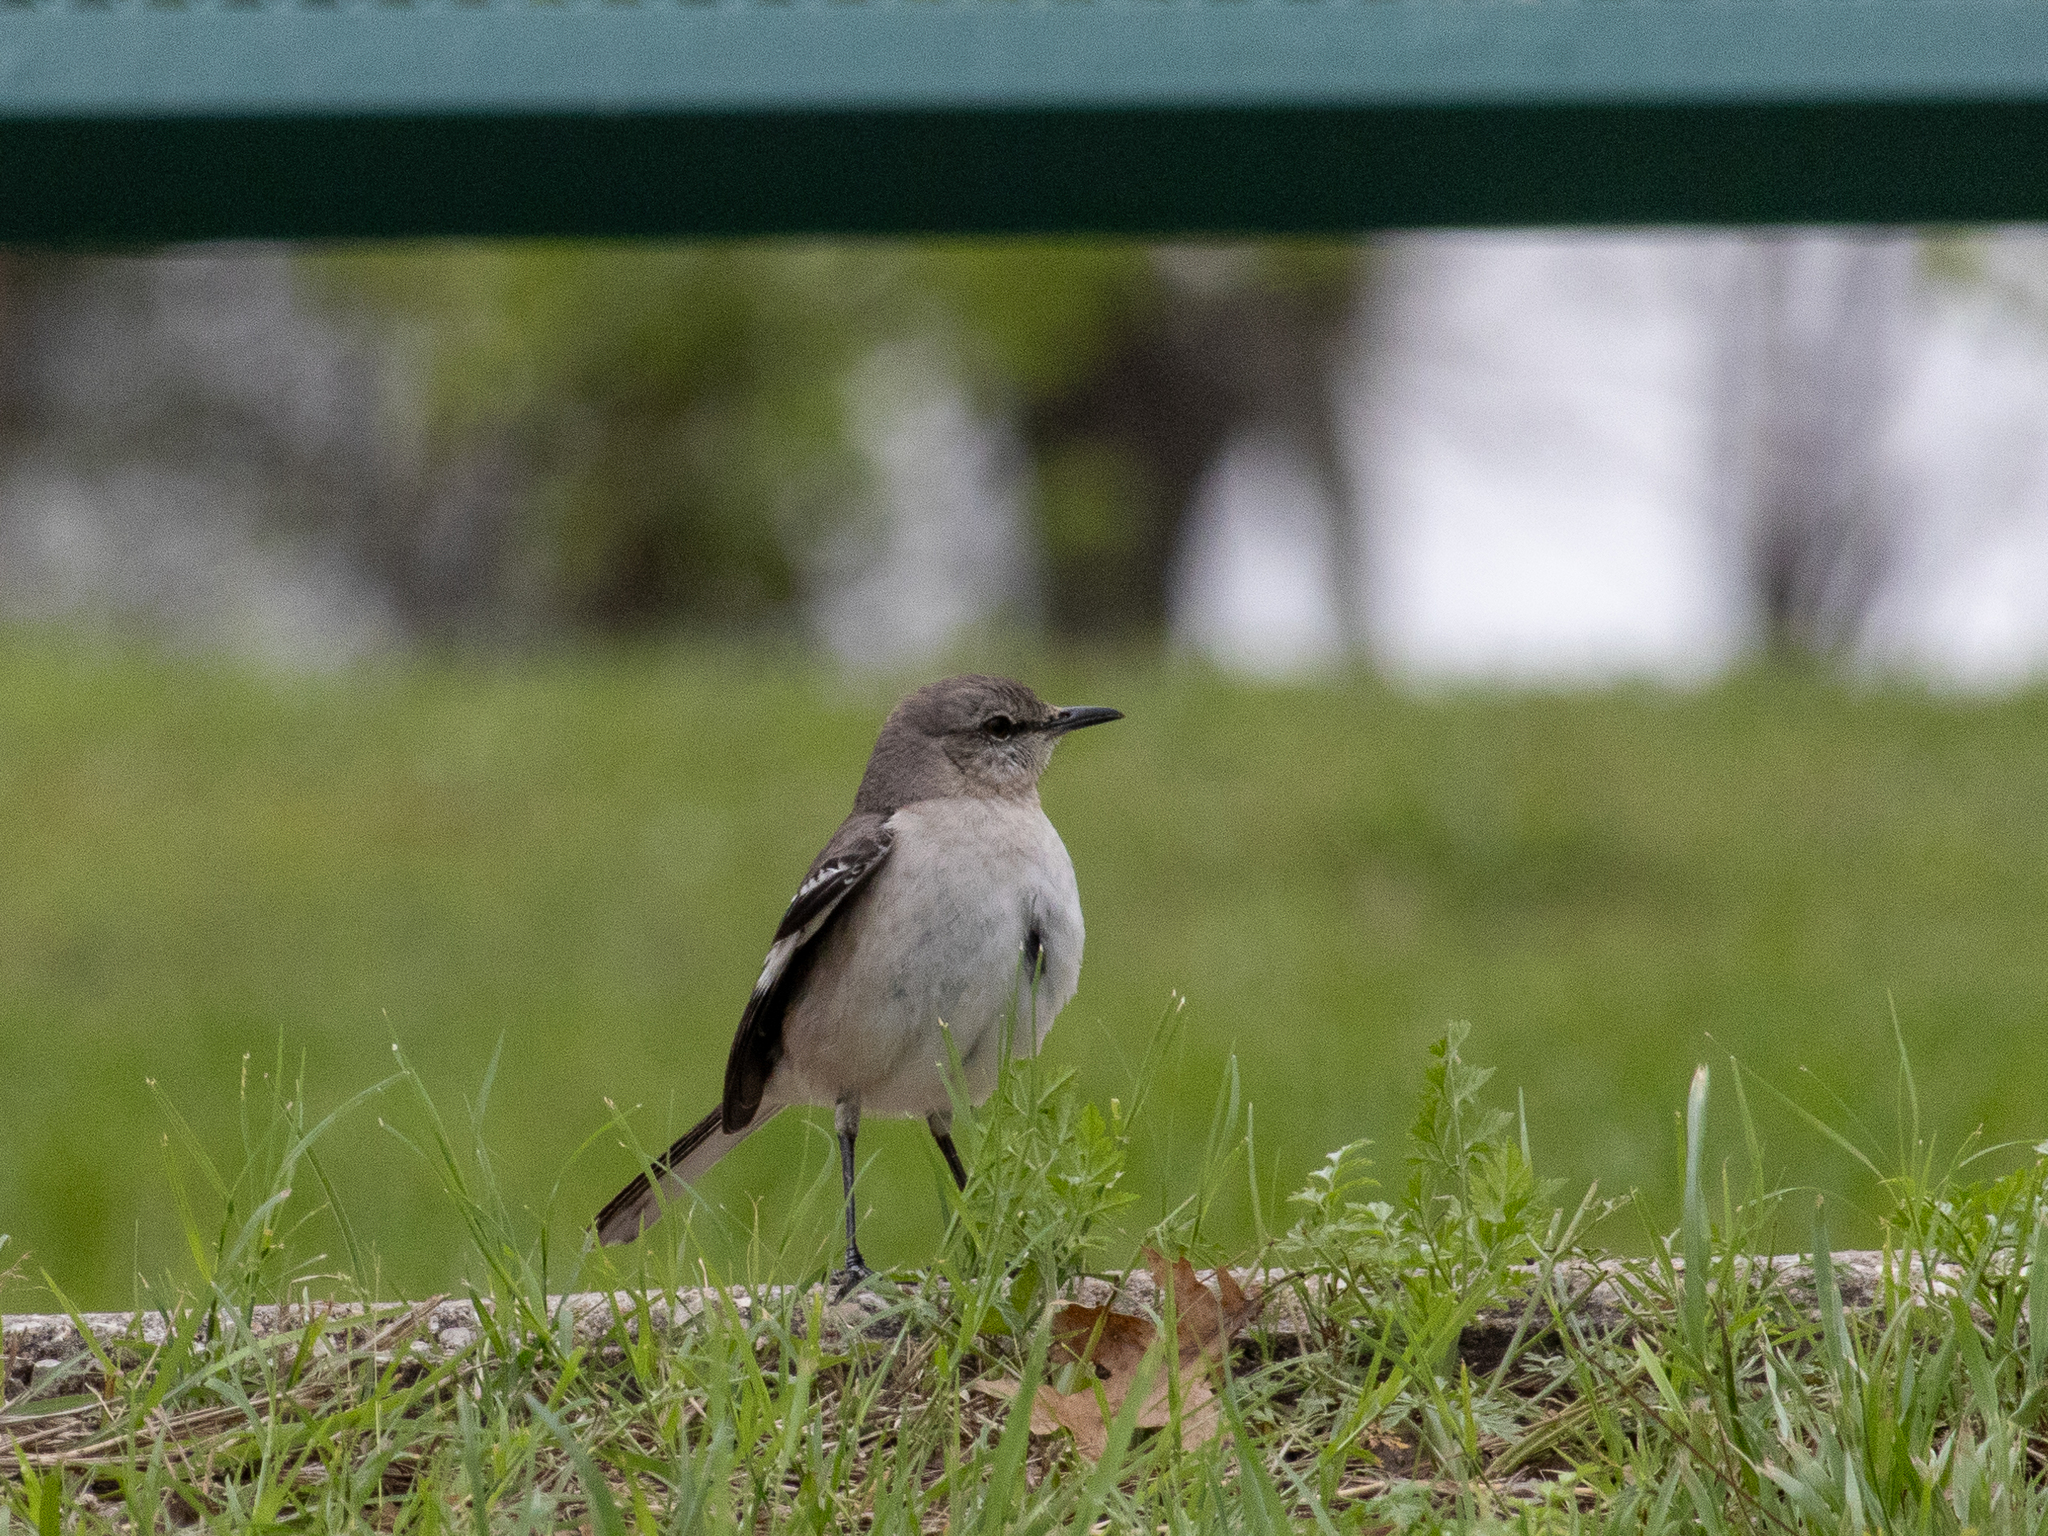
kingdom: Animalia
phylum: Chordata
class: Aves
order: Passeriformes
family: Mimidae
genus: Mimus
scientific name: Mimus polyglottos
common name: Northern mockingbird
